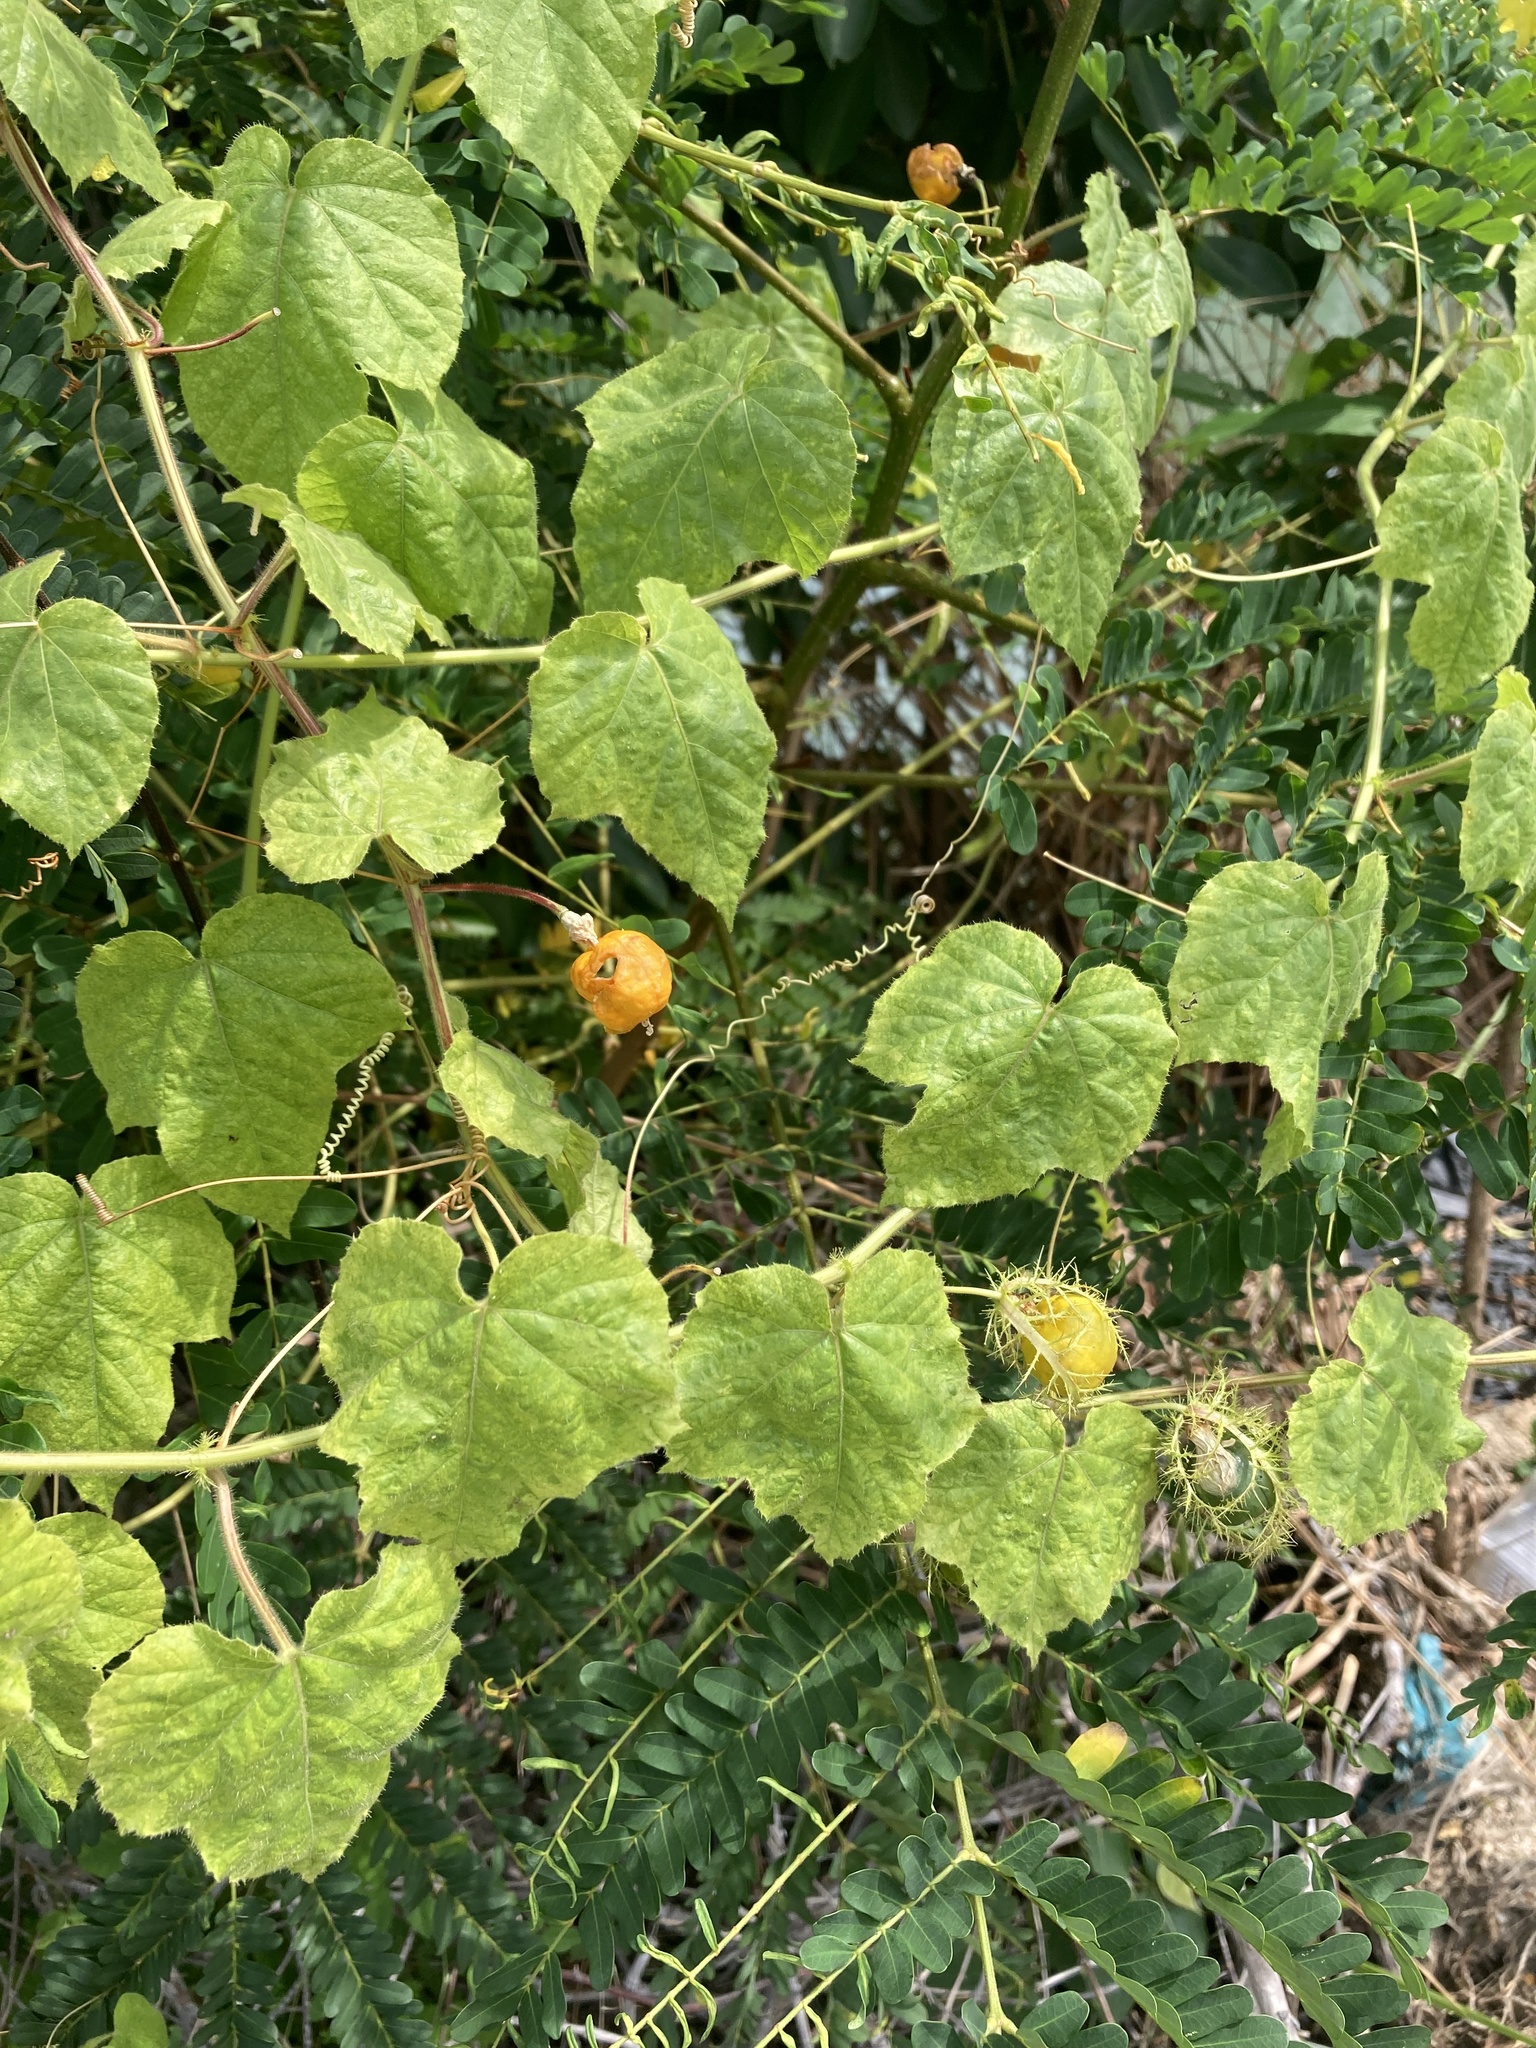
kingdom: Plantae
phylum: Tracheophyta
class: Magnoliopsida
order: Malpighiales
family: Passifloraceae
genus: Passiflora
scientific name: Passiflora foetida
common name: Fetid passionflower
